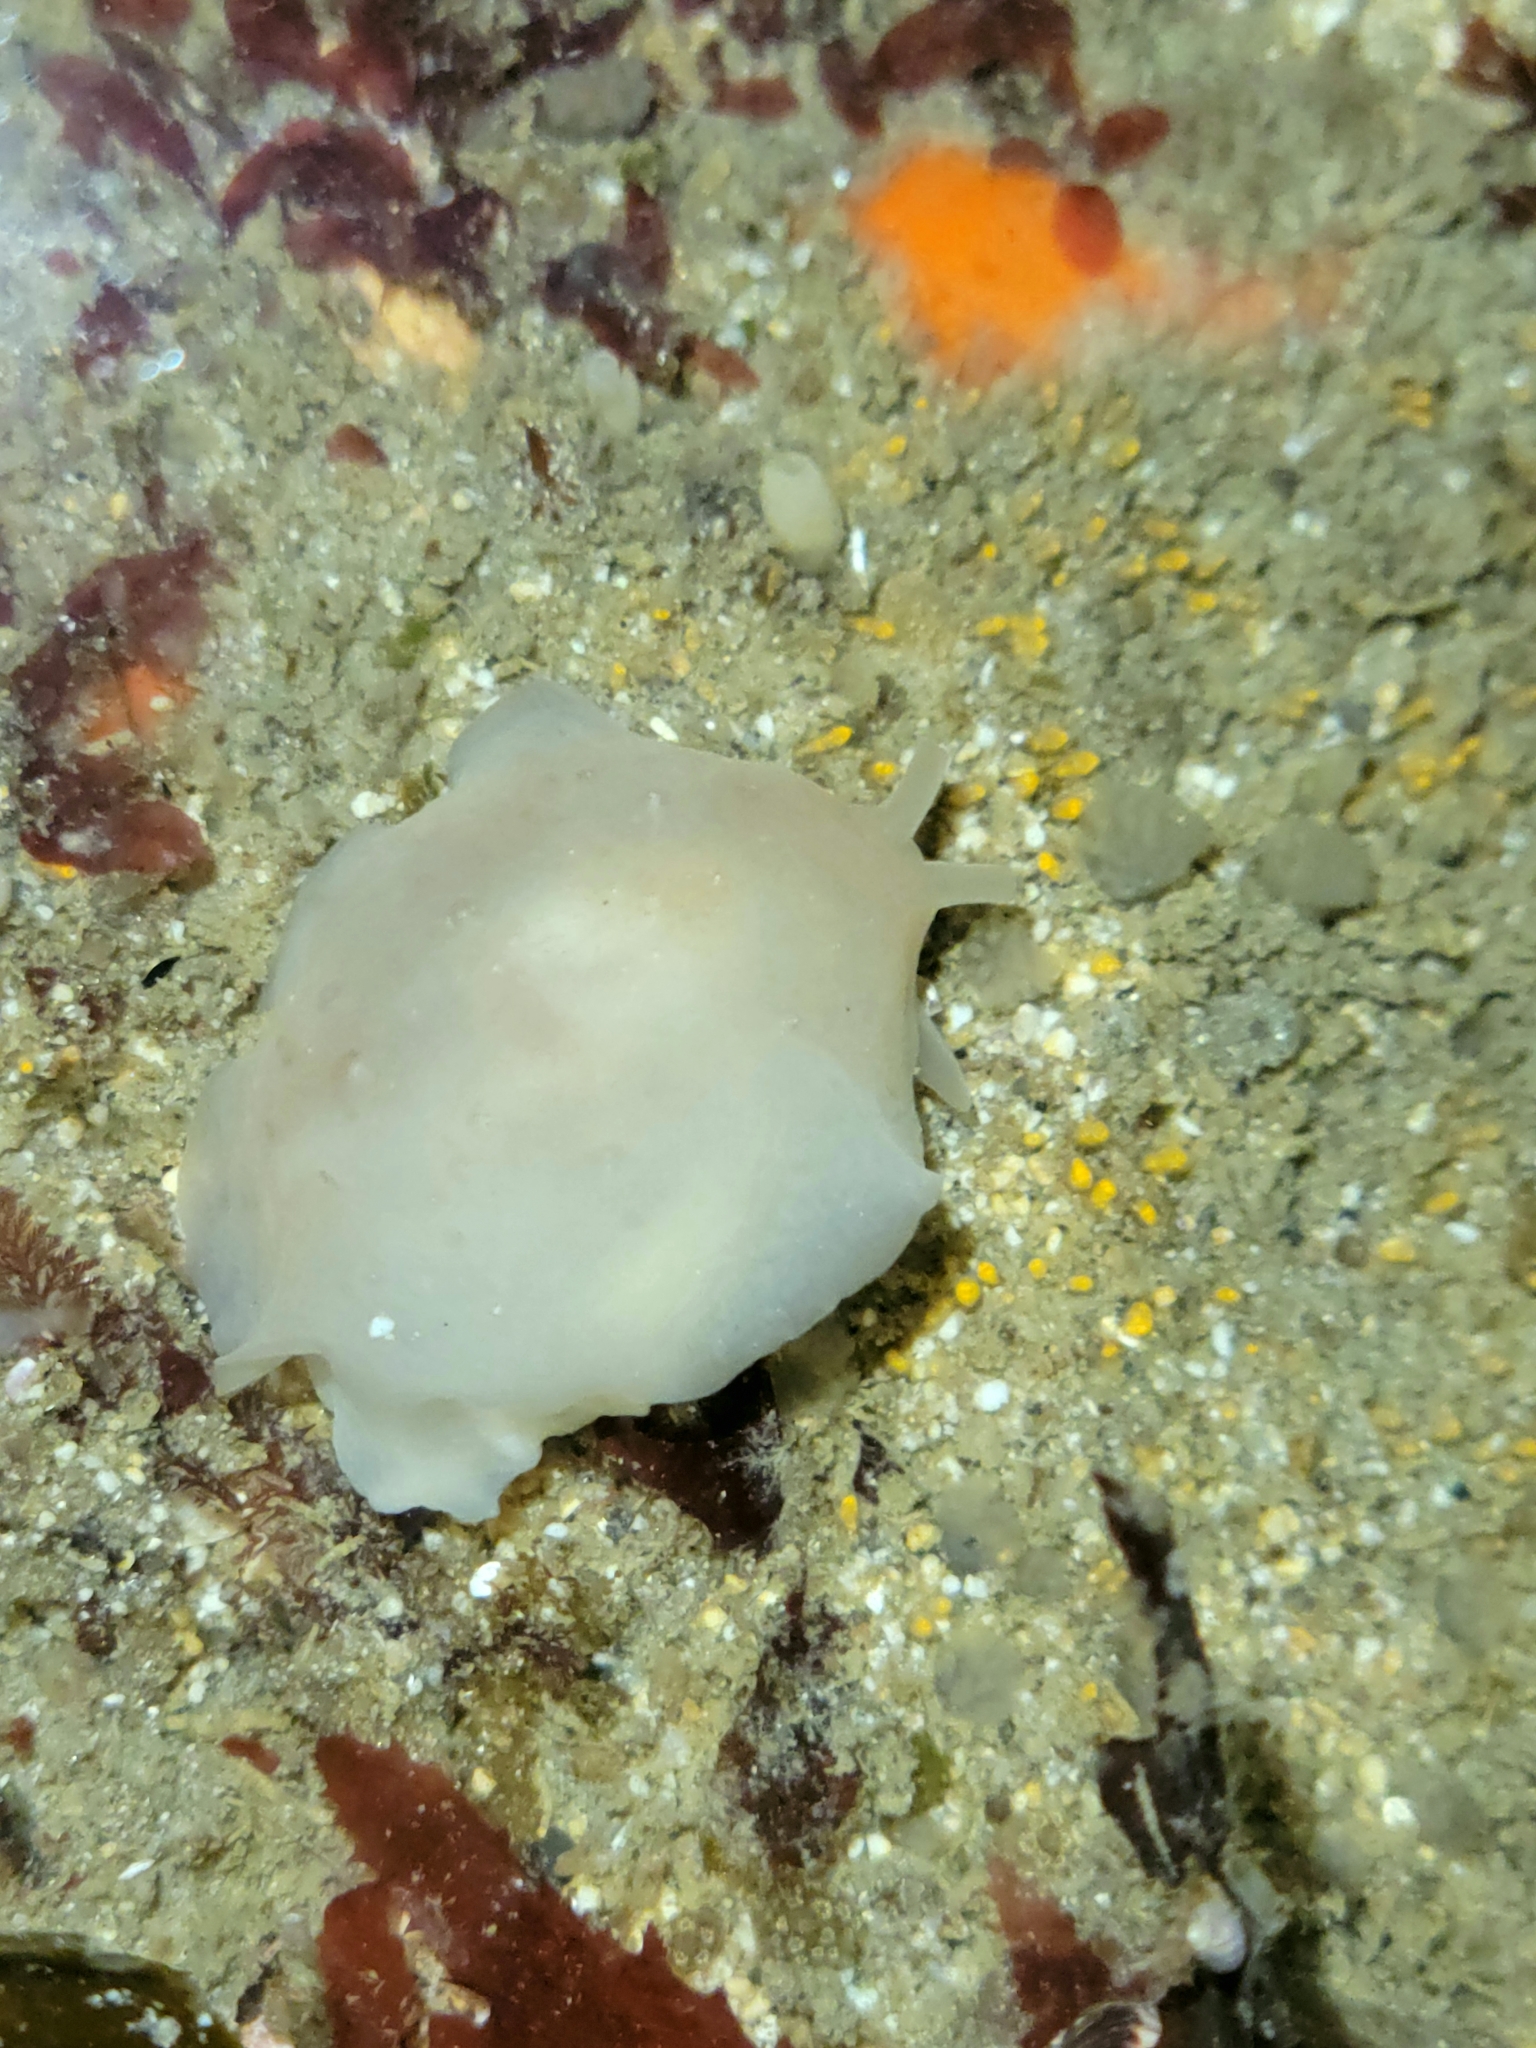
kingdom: Animalia
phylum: Mollusca
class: Gastropoda
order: Pleurobranchida
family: Pleurobranchidae
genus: Pleurehdera
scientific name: Pleurehdera
